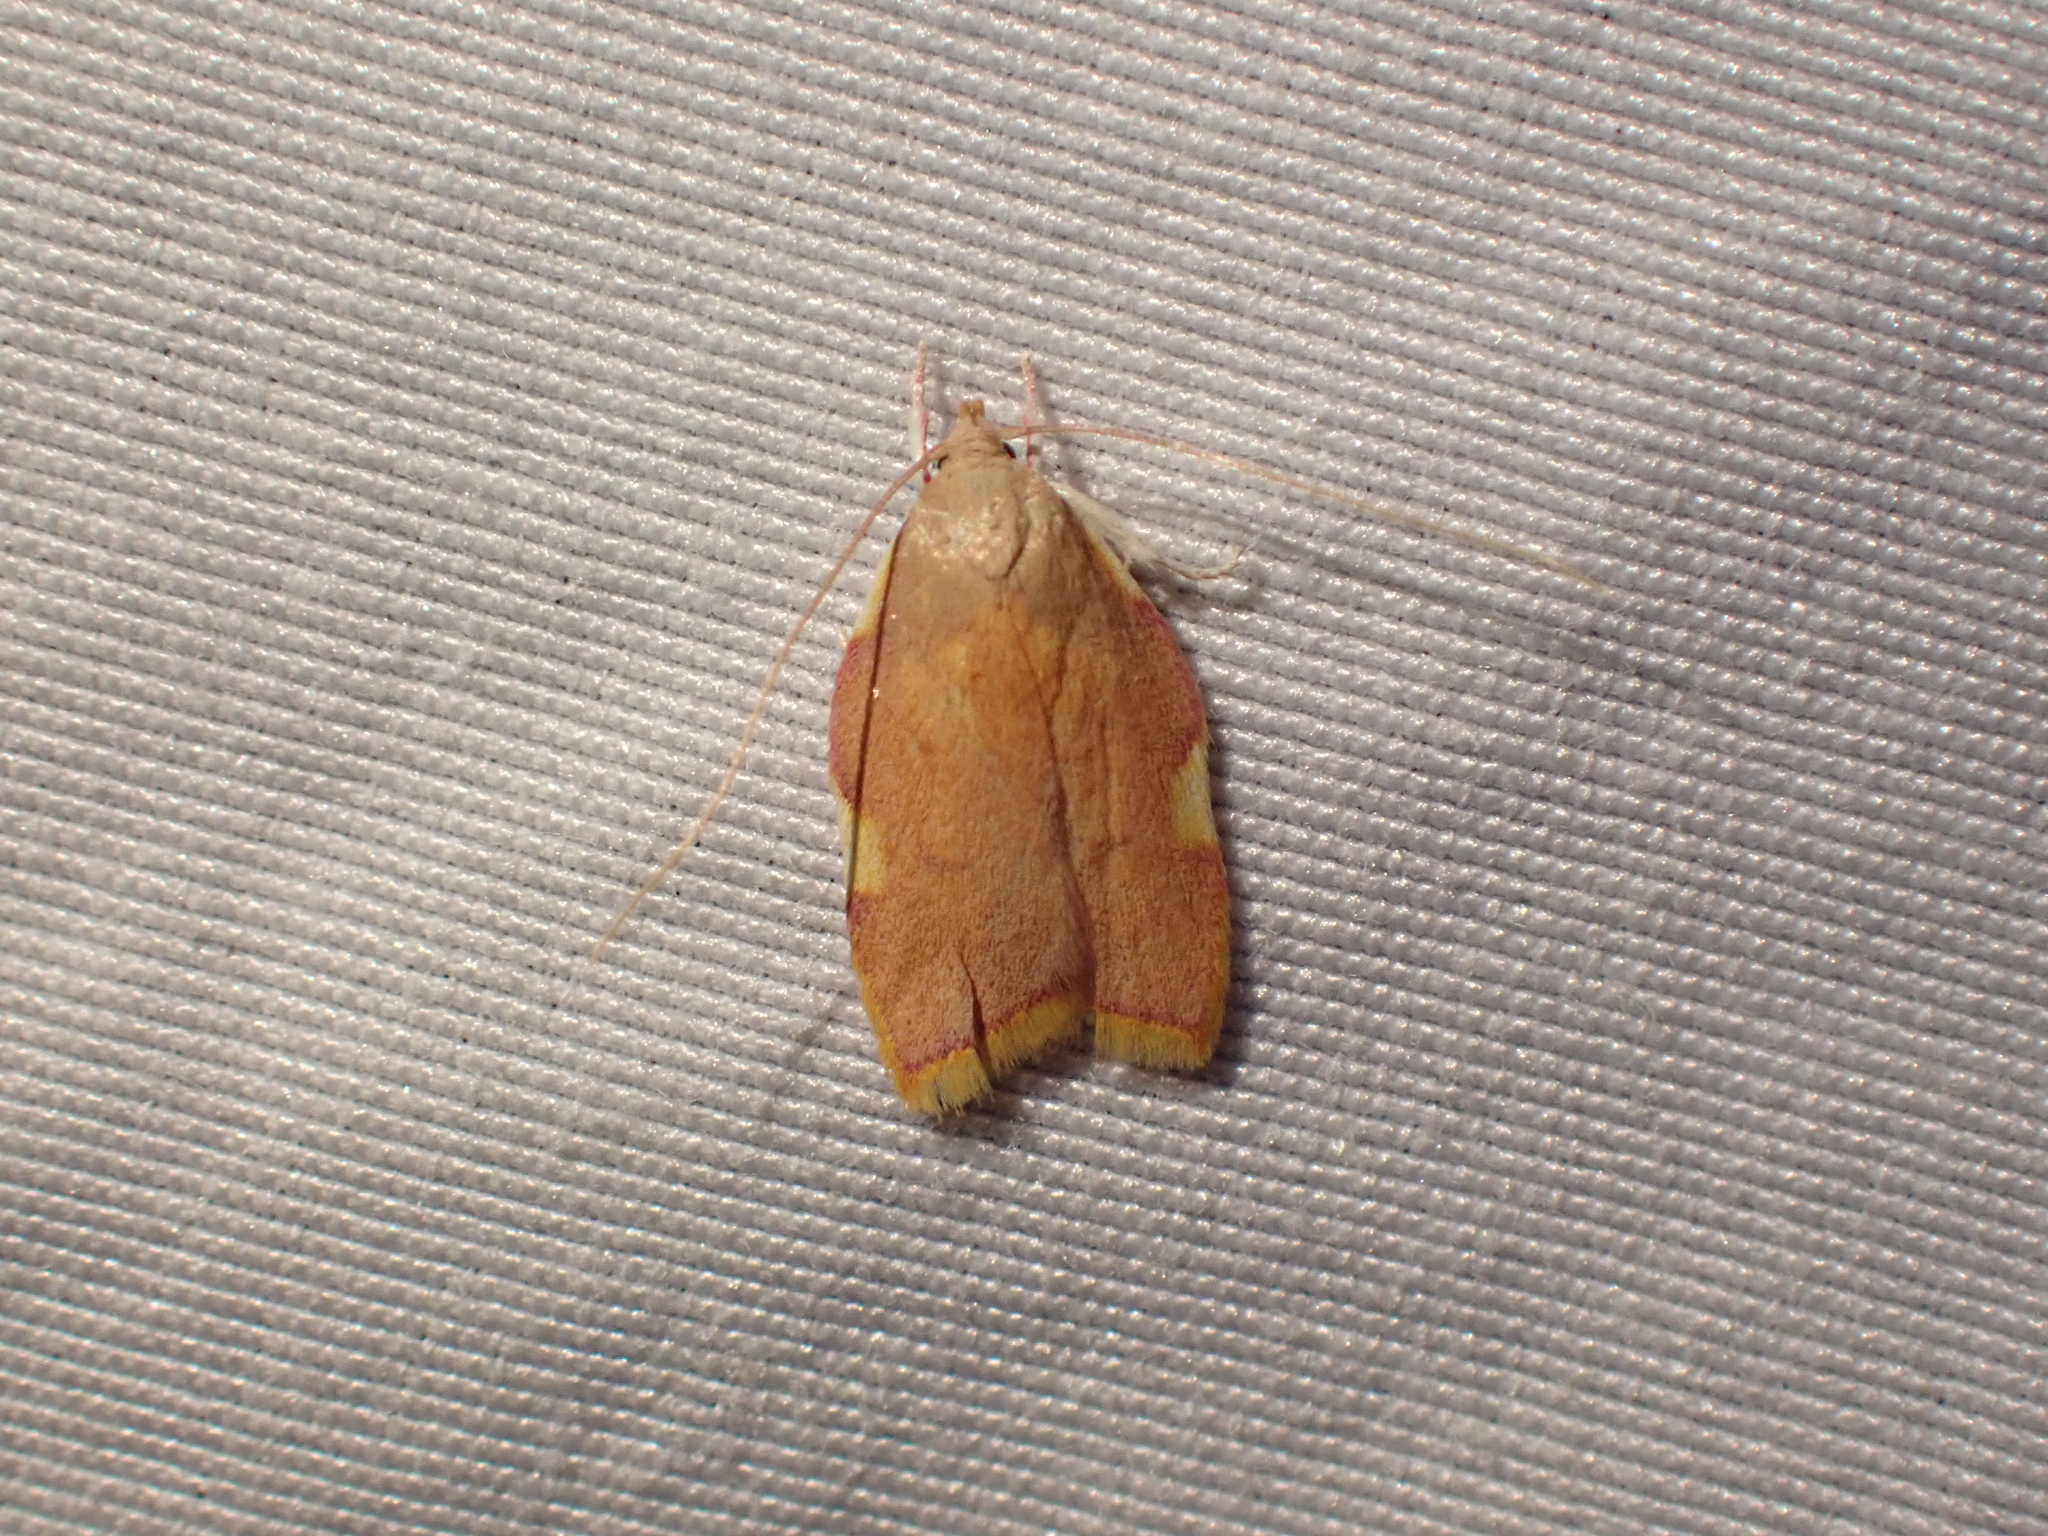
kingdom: Animalia
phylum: Arthropoda
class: Insecta
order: Lepidoptera
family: Peleopodidae
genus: Carcina
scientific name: Carcina quercana
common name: Moth
